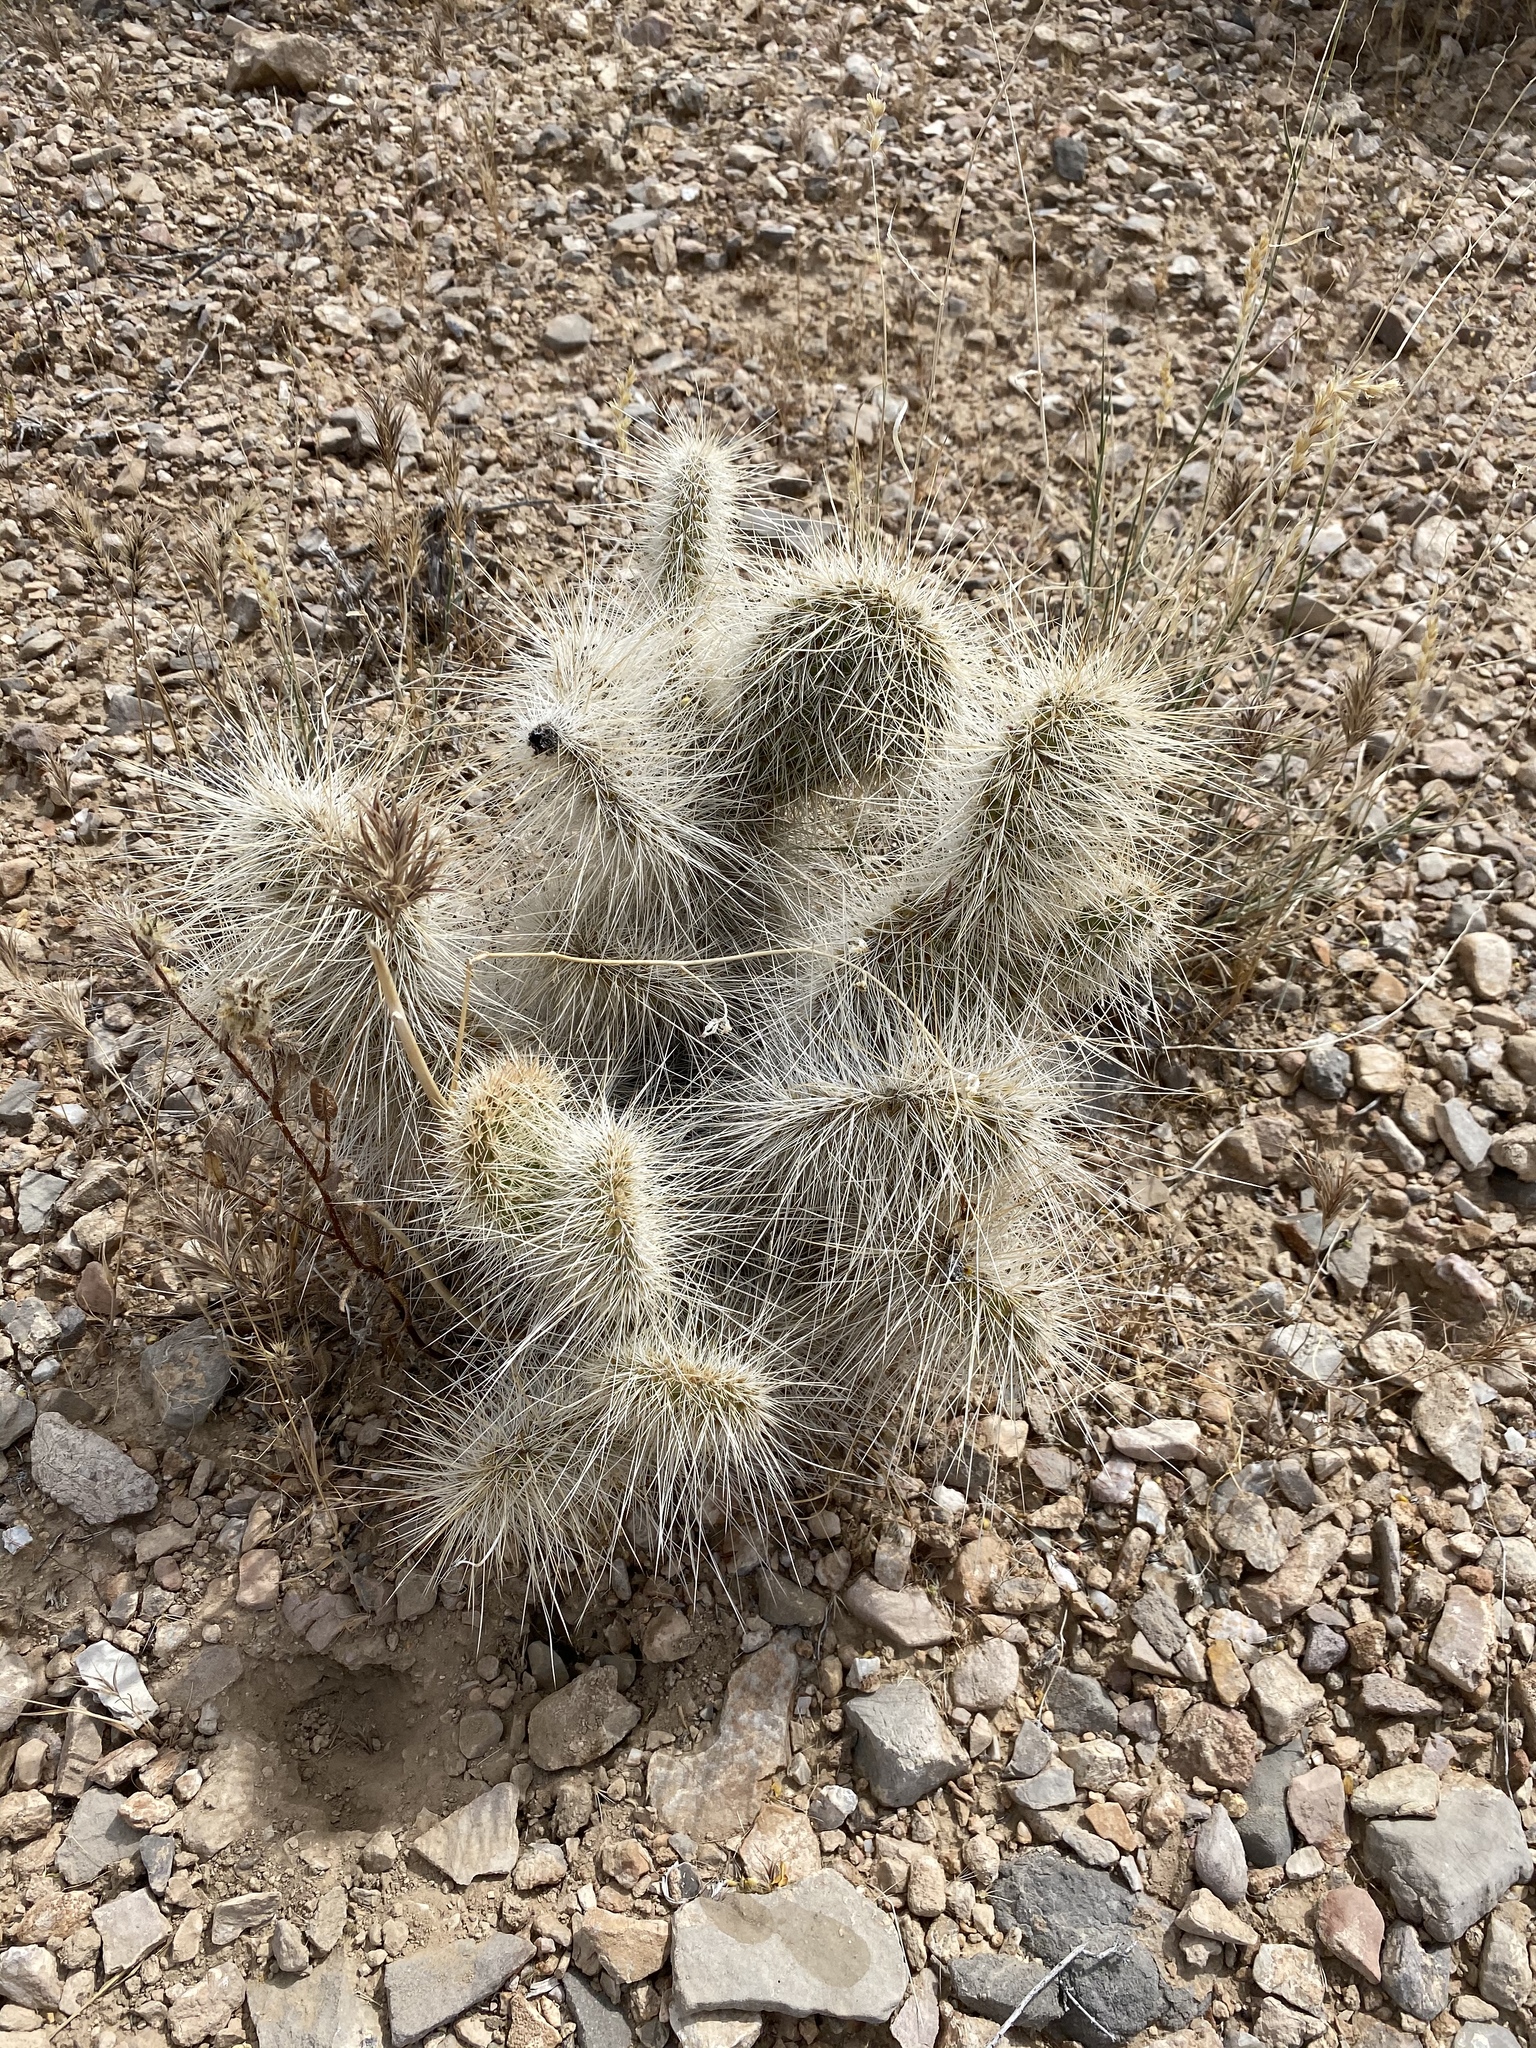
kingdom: Plantae
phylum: Tracheophyta
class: Magnoliopsida
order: Caryophyllales
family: Cactaceae
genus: Opuntia
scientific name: Opuntia polyacantha
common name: Plains prickly-pear
